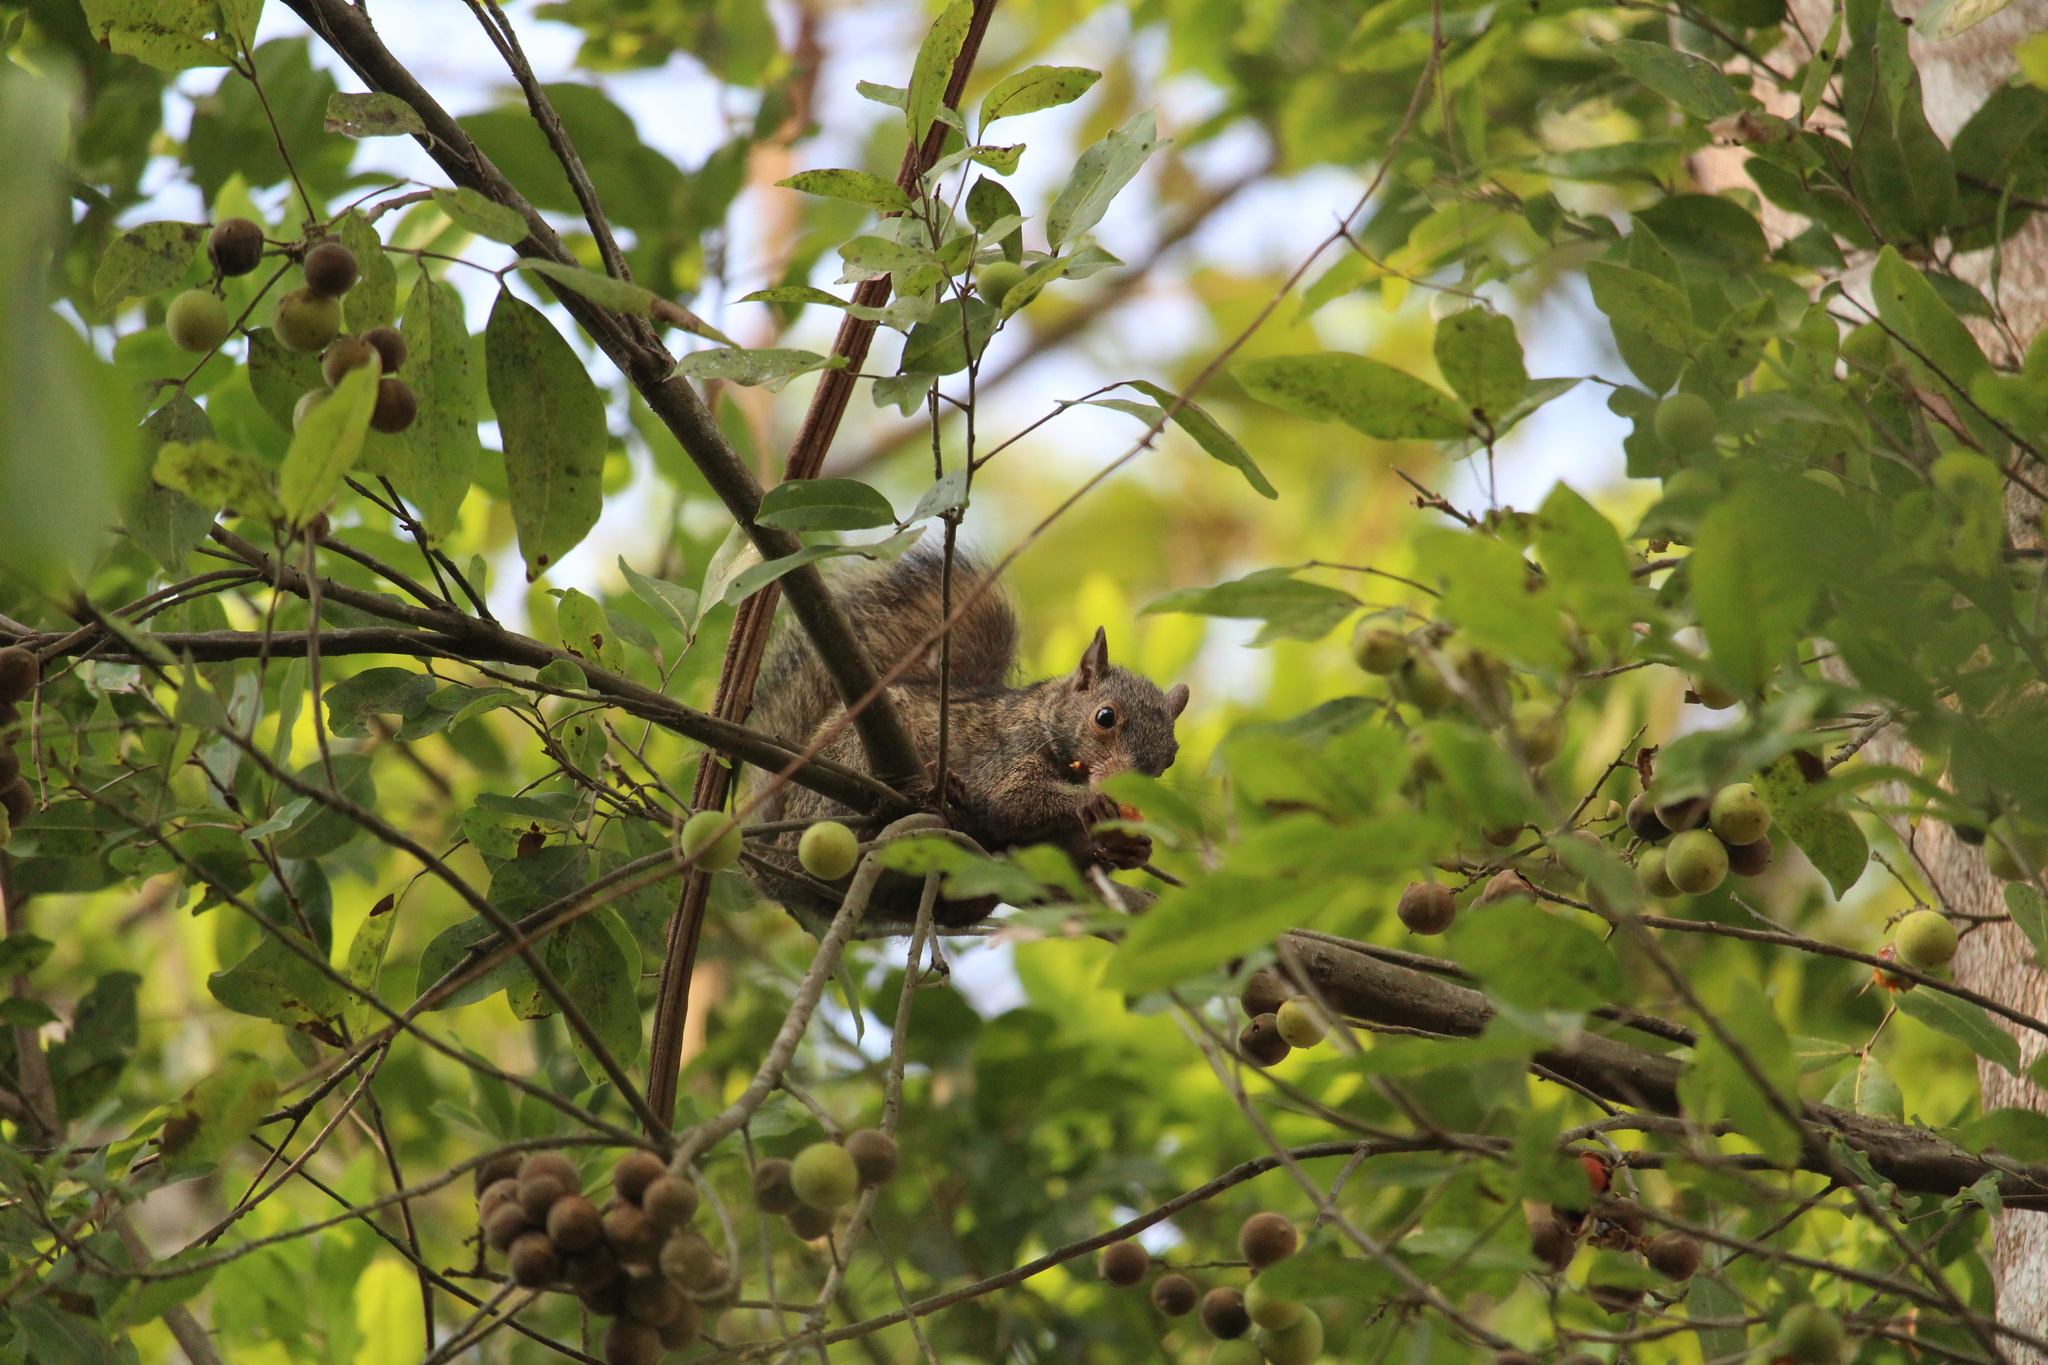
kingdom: Animalia
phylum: Chordata
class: Mammalia
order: Rodentia
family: Sciuridae
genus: Sciurus
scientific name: Sciurus yucatanensis
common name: Yucatan squirrel
